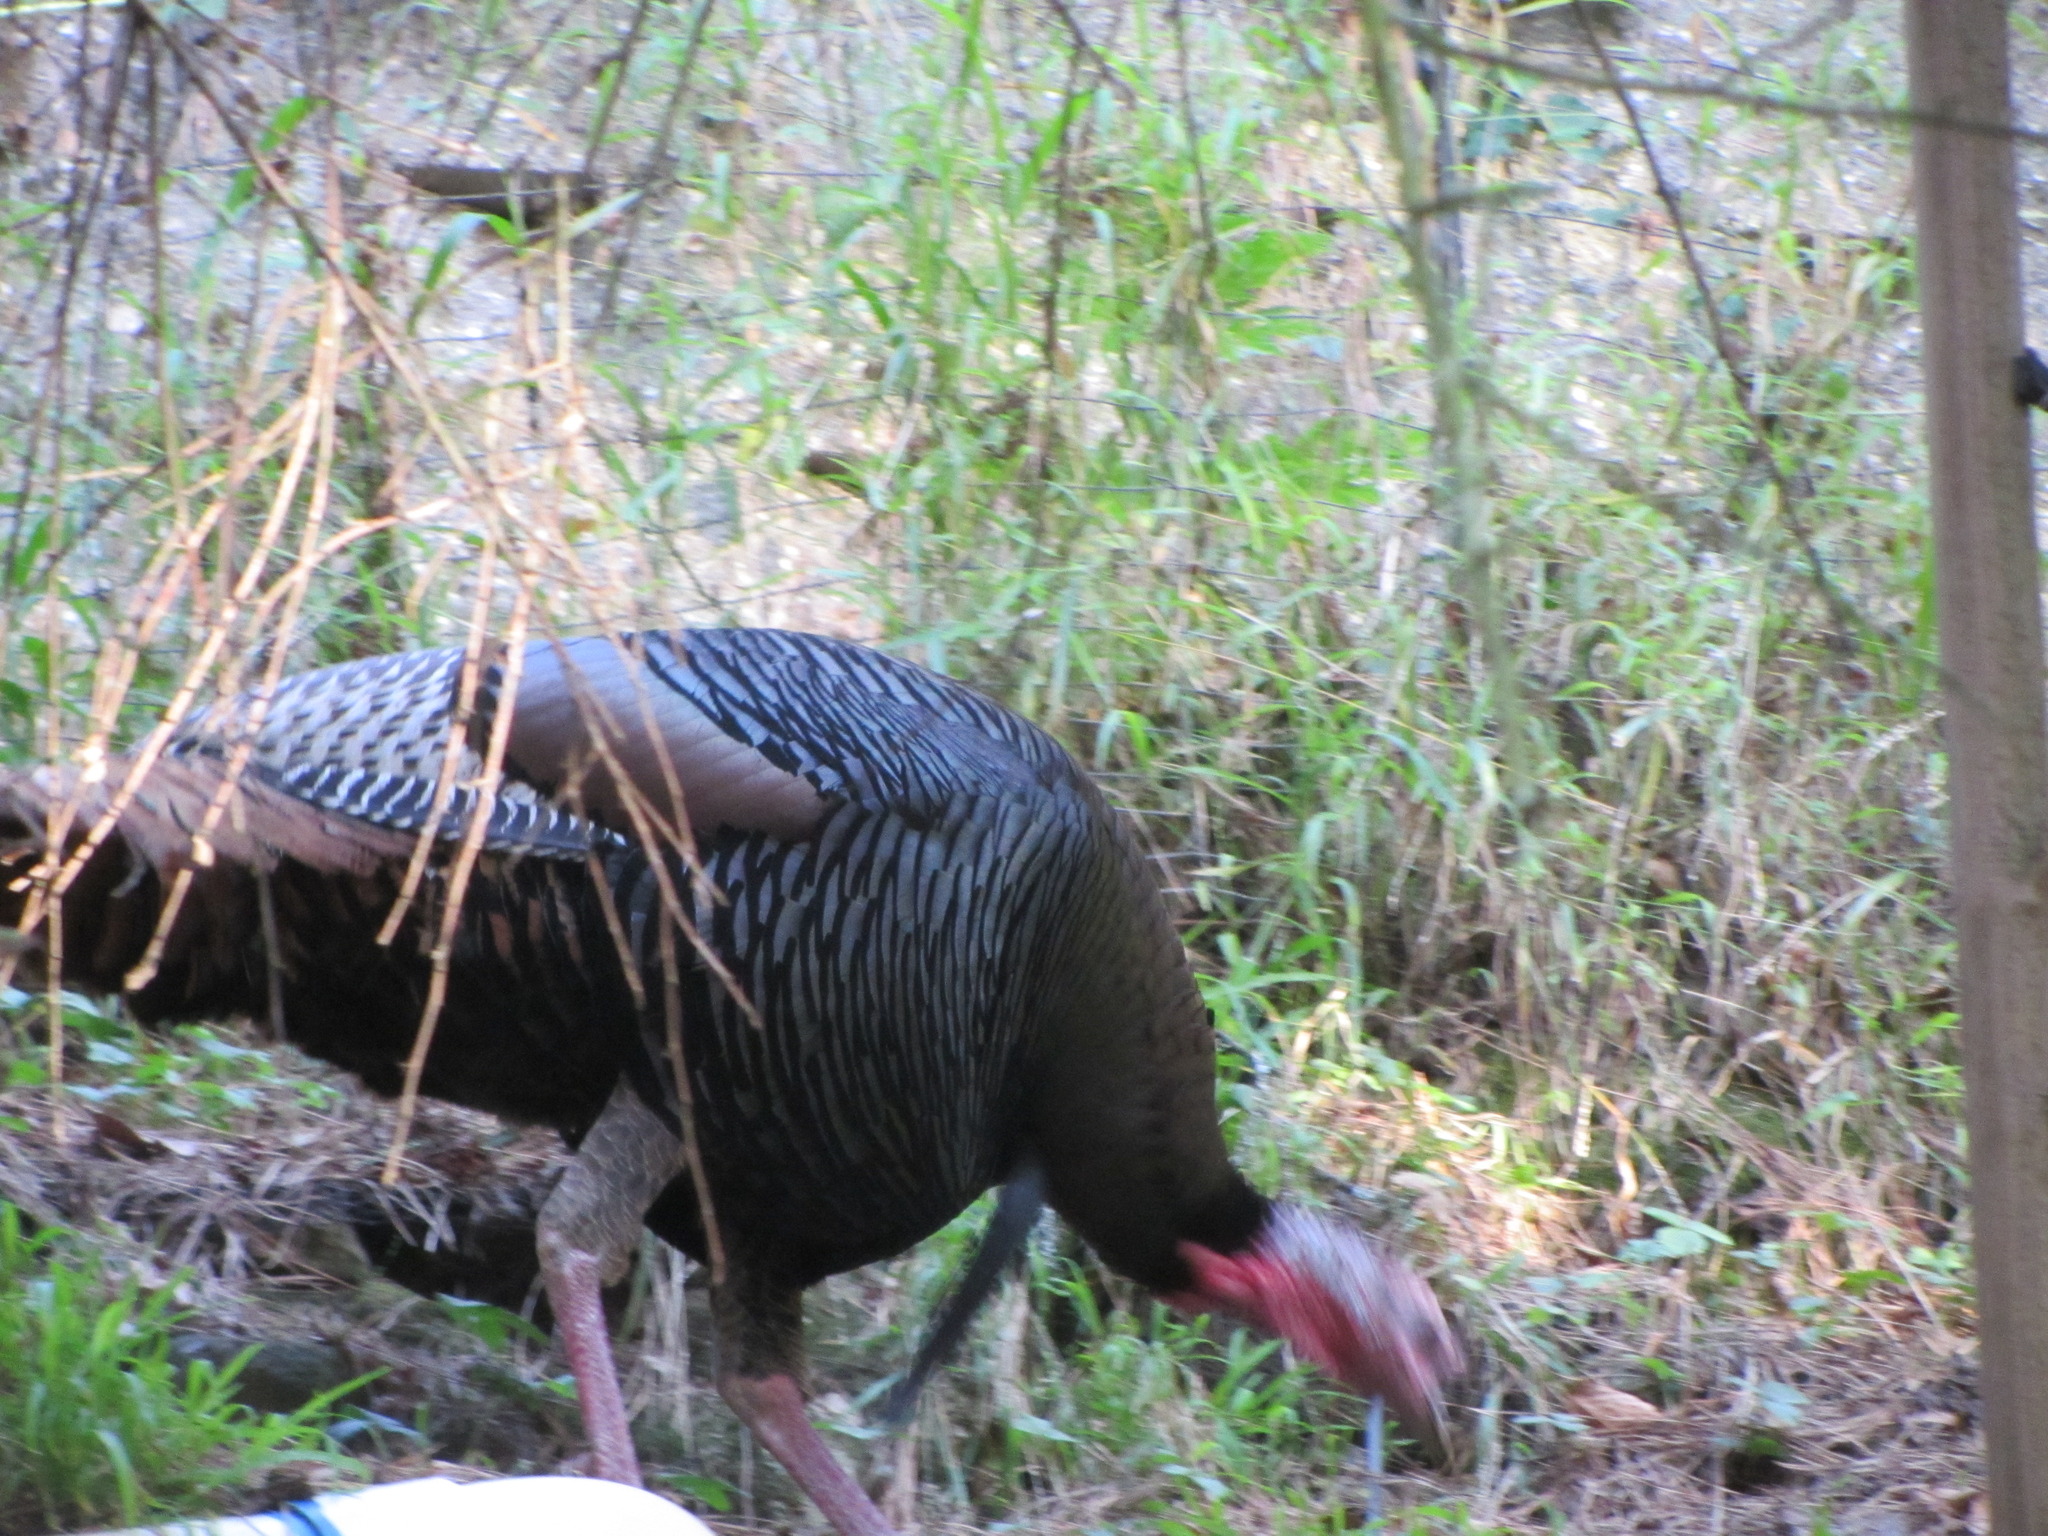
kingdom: Animalia
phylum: Chordata
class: Aves
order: Galliformes
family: Phasianidae
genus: Meleagris
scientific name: Meleagris gallopavo
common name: Wild turkey
